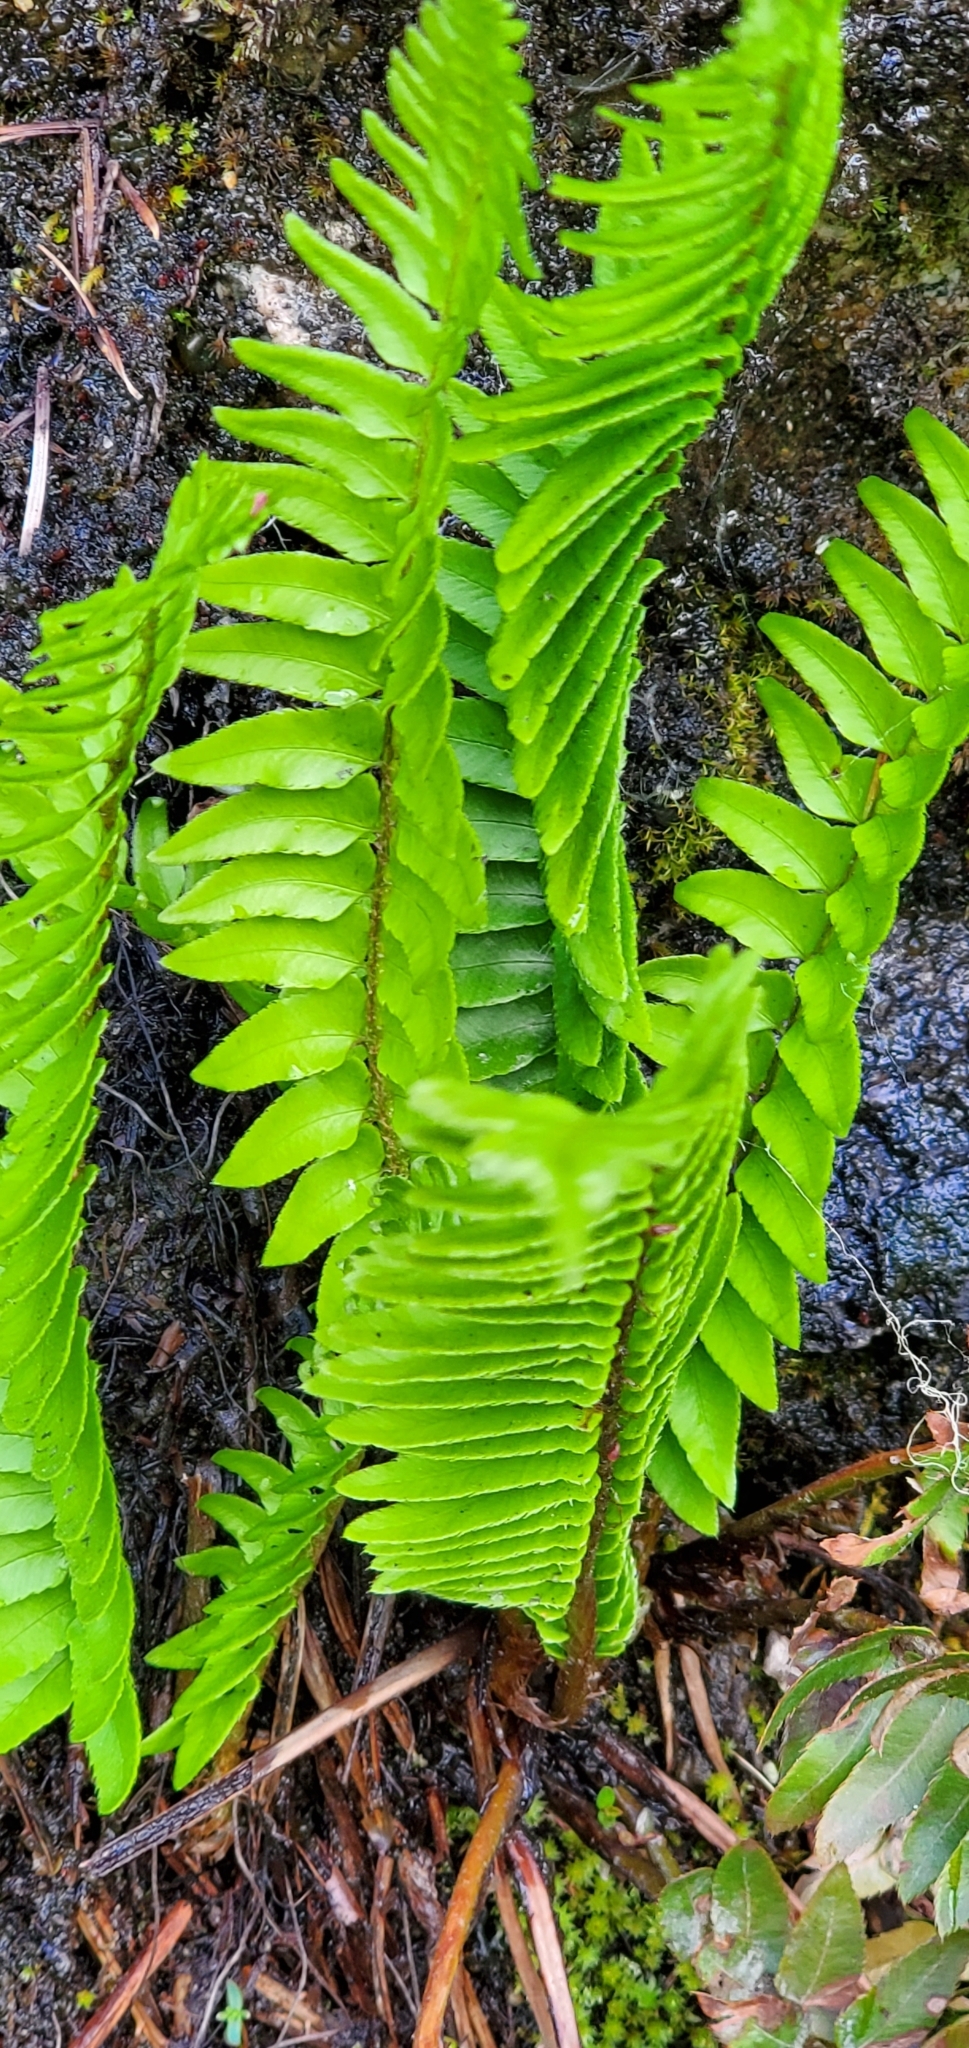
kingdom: Plantae
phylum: Tracheophyta
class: Polypodiopsida
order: Polypodiales
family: Dryopteridaceae
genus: Polystichum
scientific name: Polystichum munitum
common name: Western sword-fern
